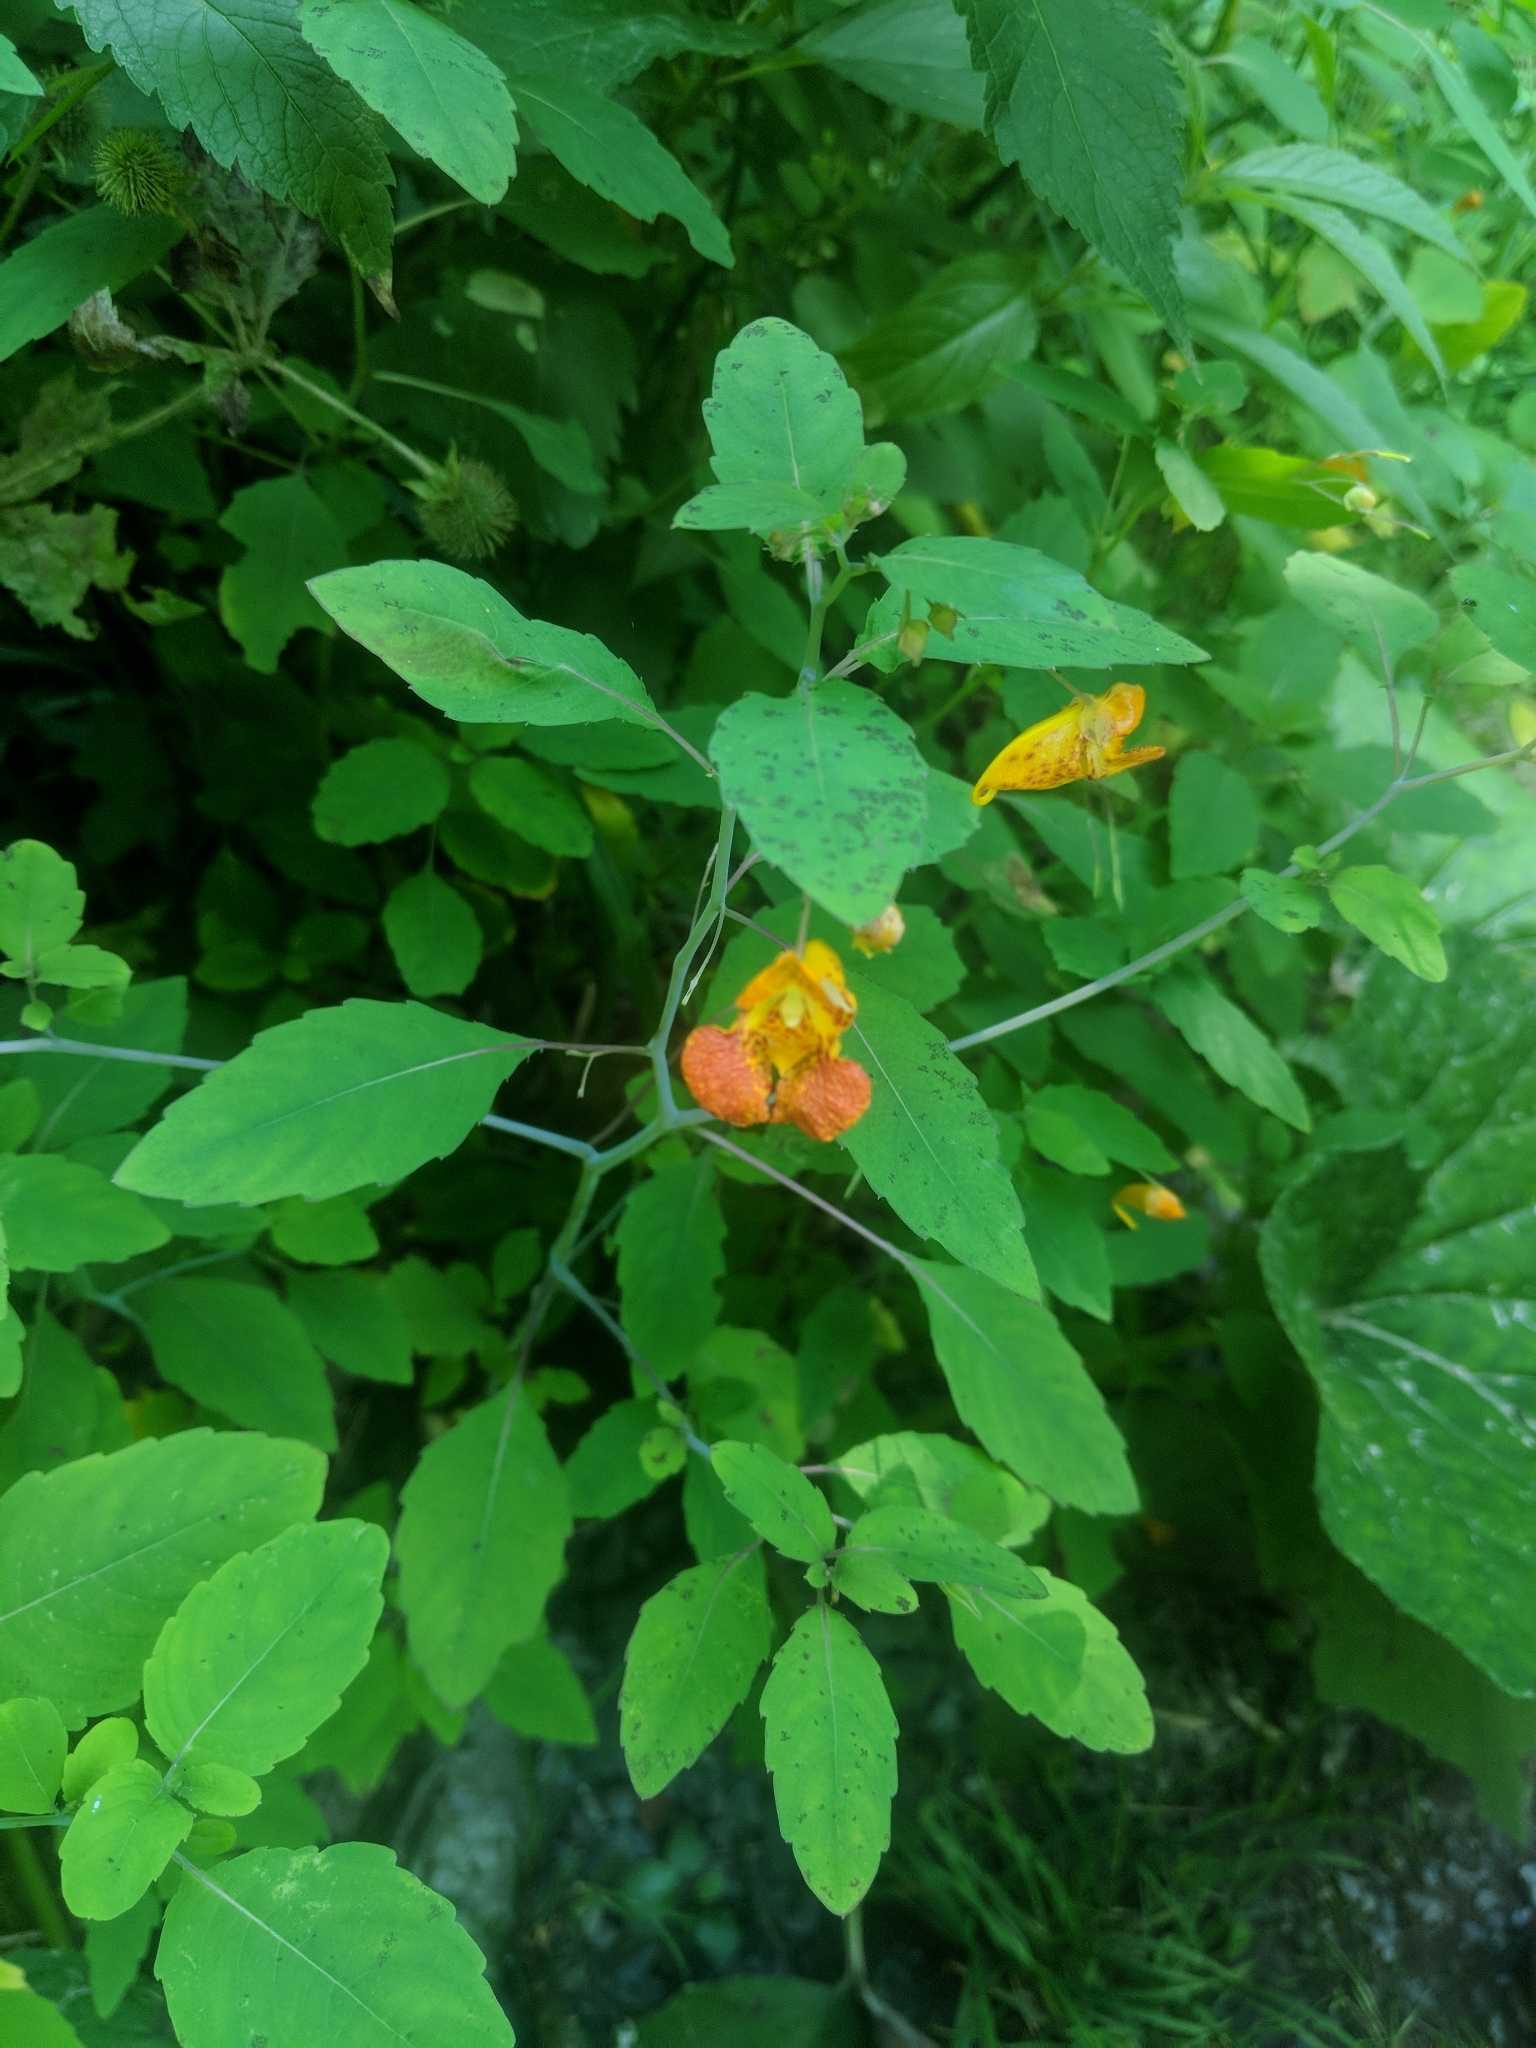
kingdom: Plantae
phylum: Tracheophyta
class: Magnoliopsida
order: Ericales
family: Balsaminaceae
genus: Impatiens
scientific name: Impatiens capensis
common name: Orange balsam
